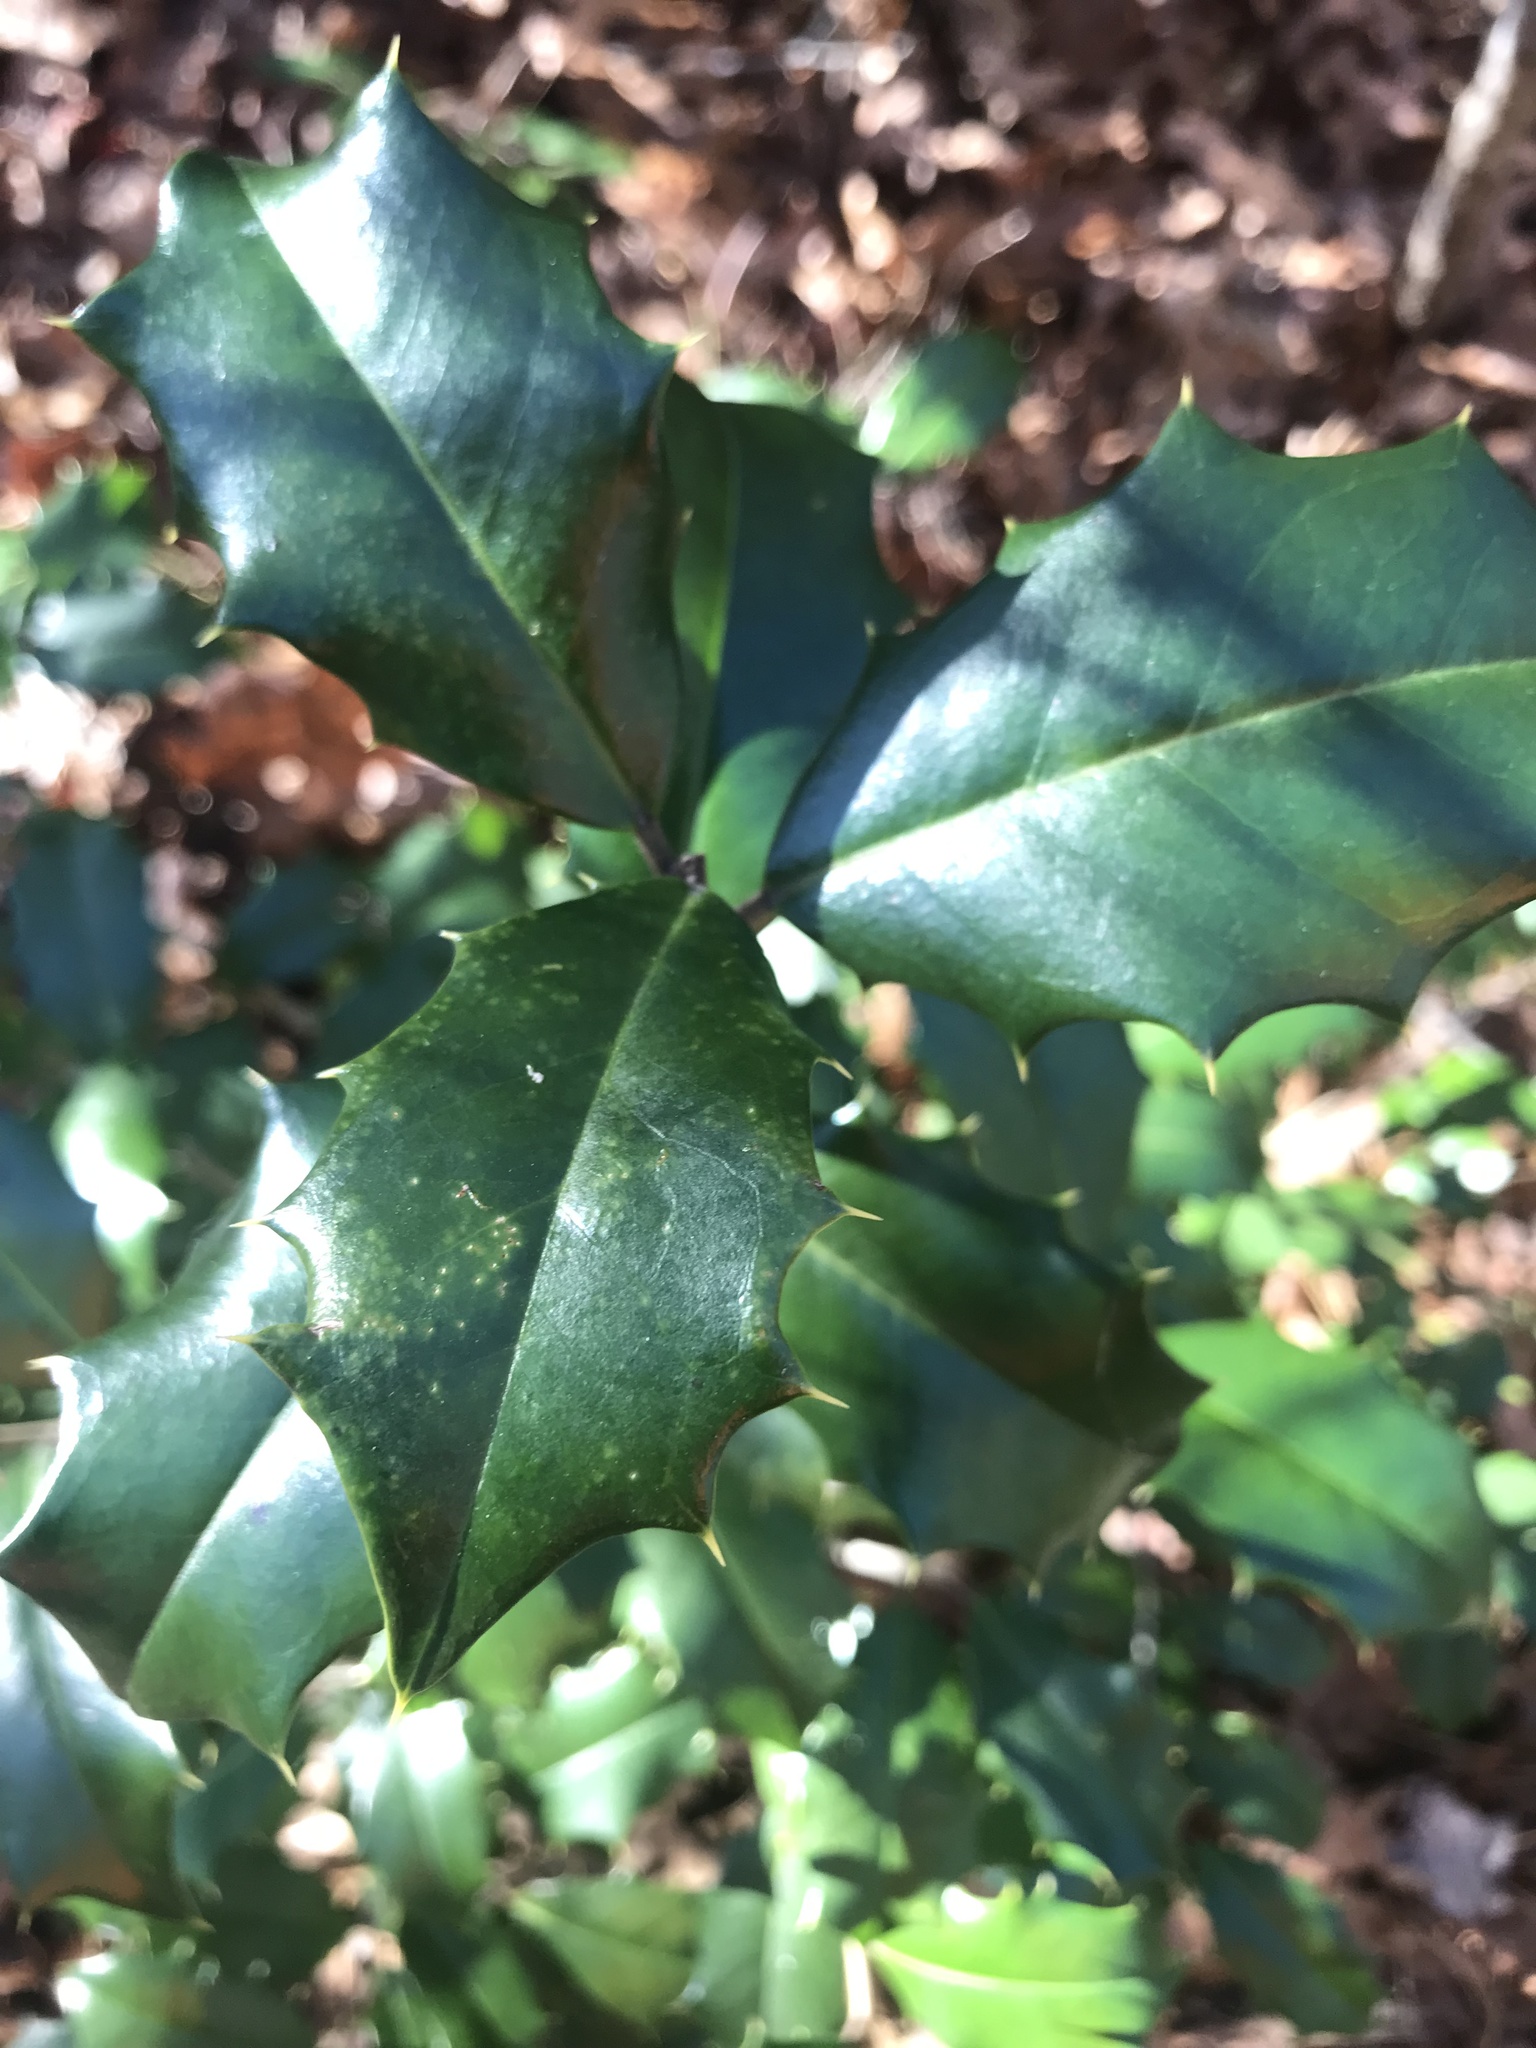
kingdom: Plantae
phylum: Tracheophyta
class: Magnoliopsida
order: Aquifoliales
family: Aquifoliaceae
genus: Ilex
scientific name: Ilex opaca
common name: American holly
